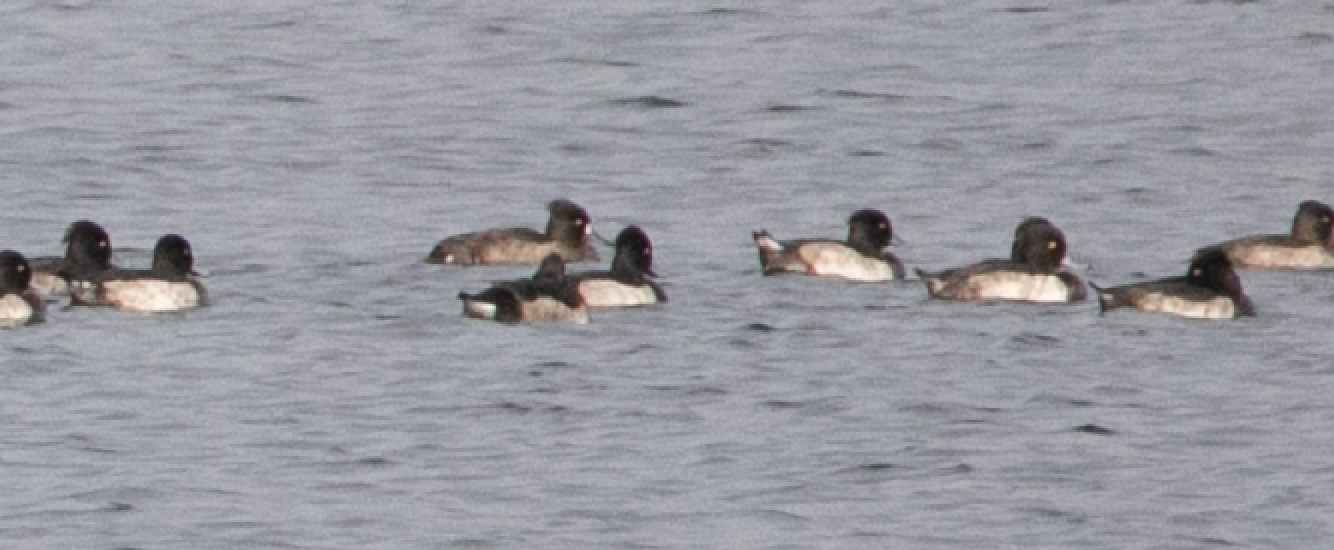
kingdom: Animalia
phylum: Chordata
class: Aves
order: Anseriformes
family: Anatidae
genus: Aythya
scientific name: Aythya fuligula
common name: Tufted duck
